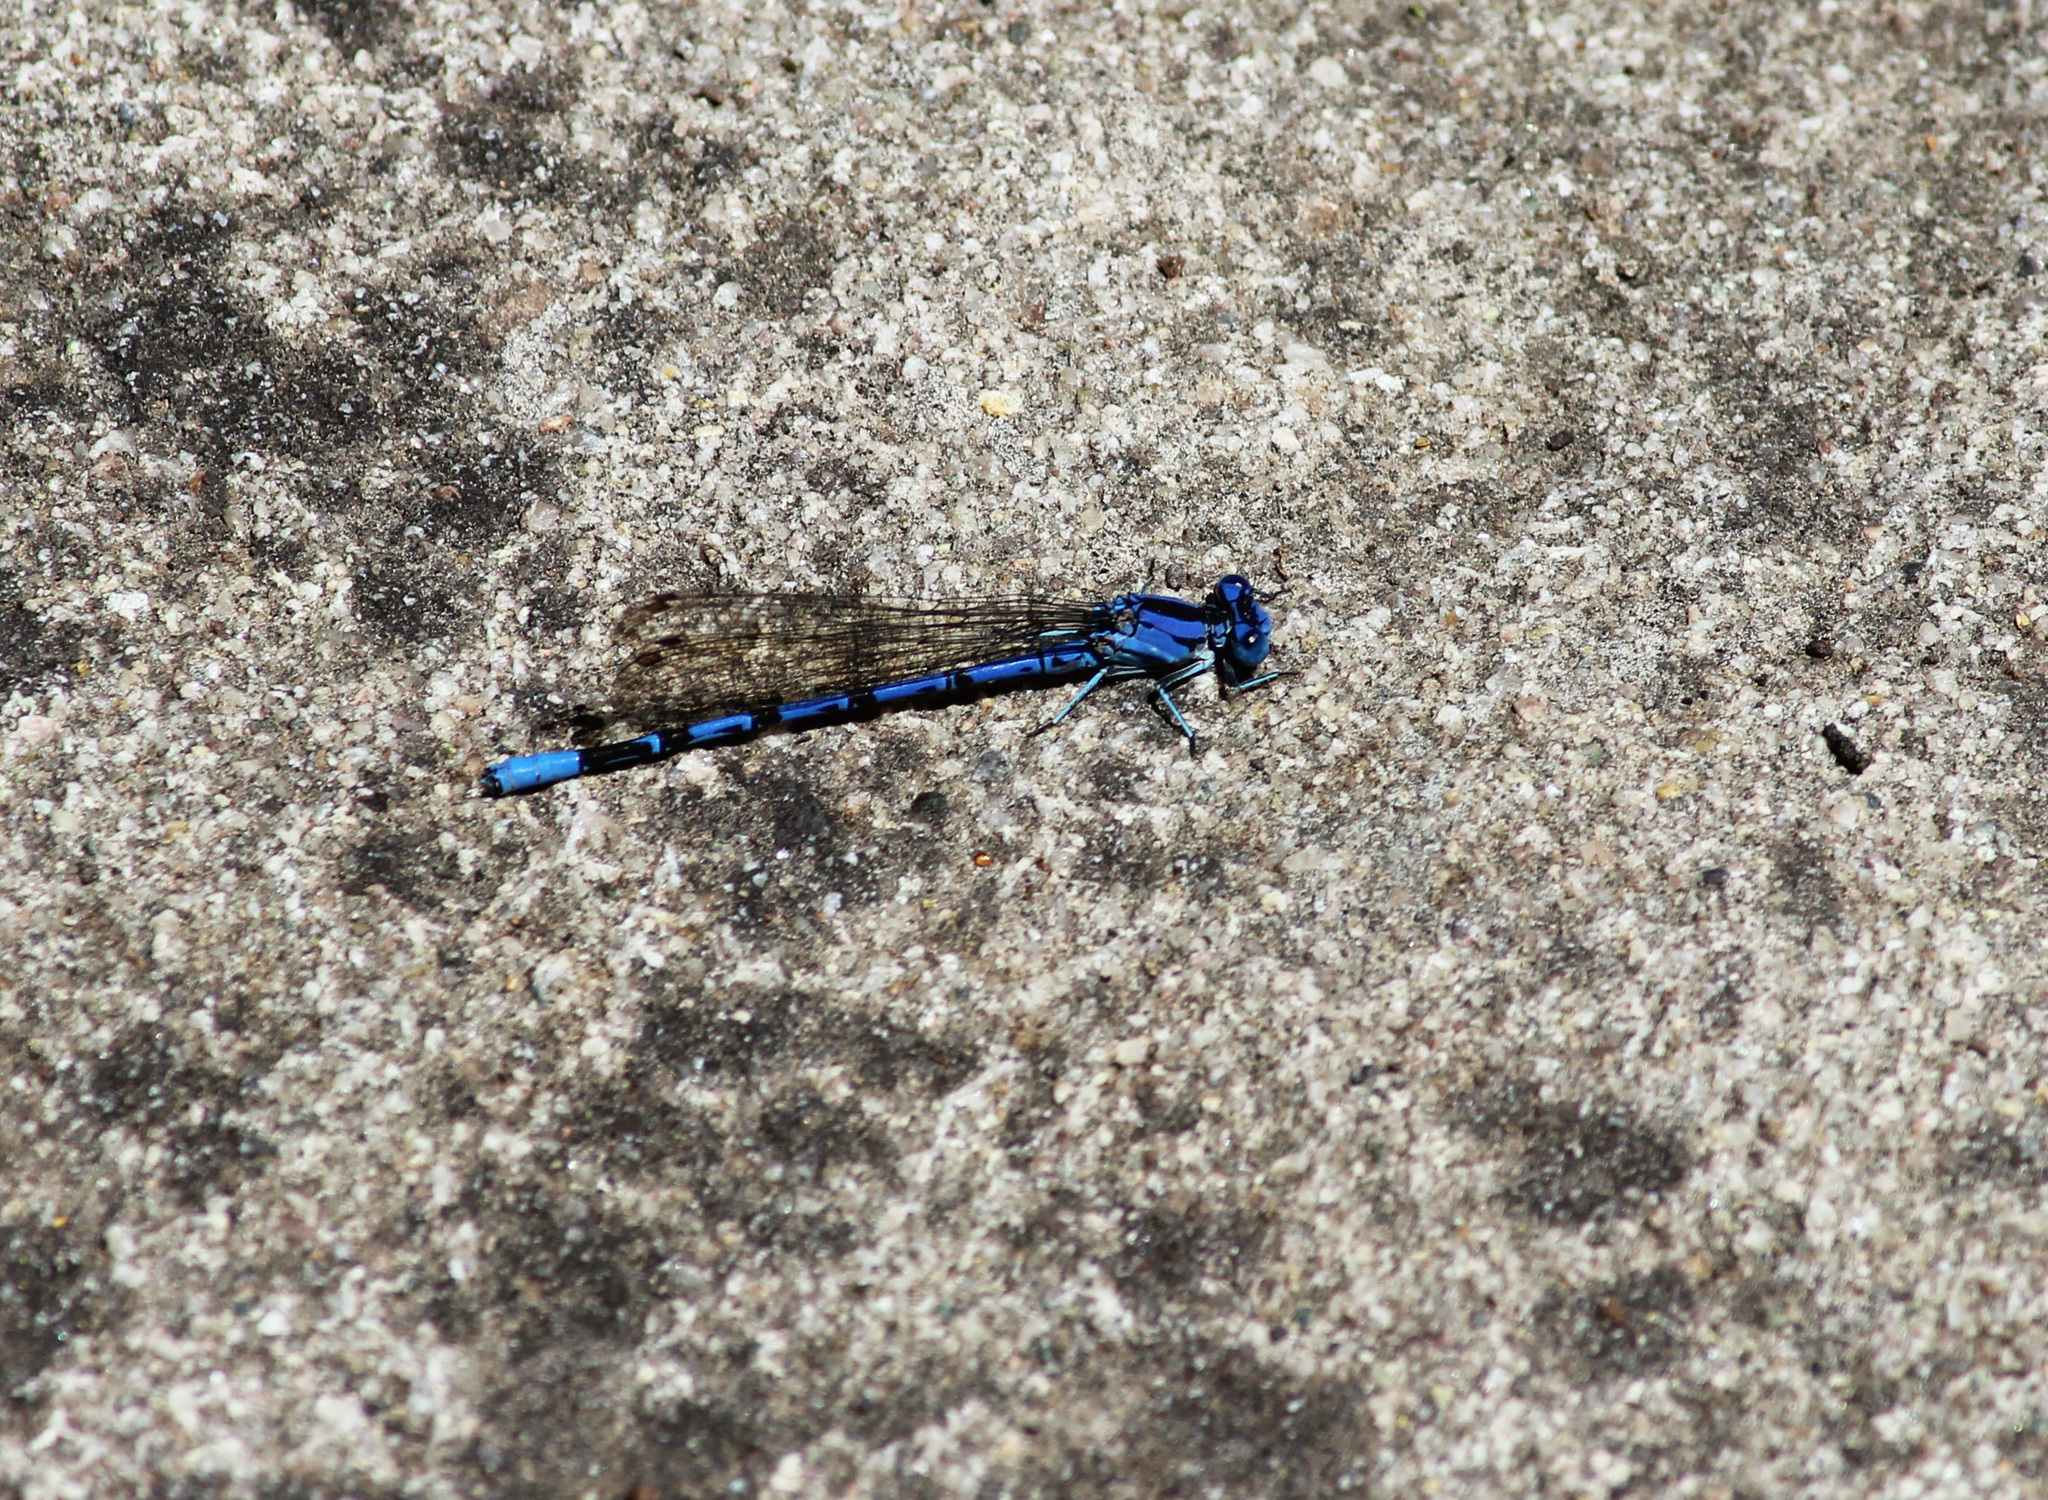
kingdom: Animalia
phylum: Arthropoda
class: Insecta
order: Odonata
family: Coenagrionidae
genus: Argia
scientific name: Argia vivida
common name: Vivid dancer
